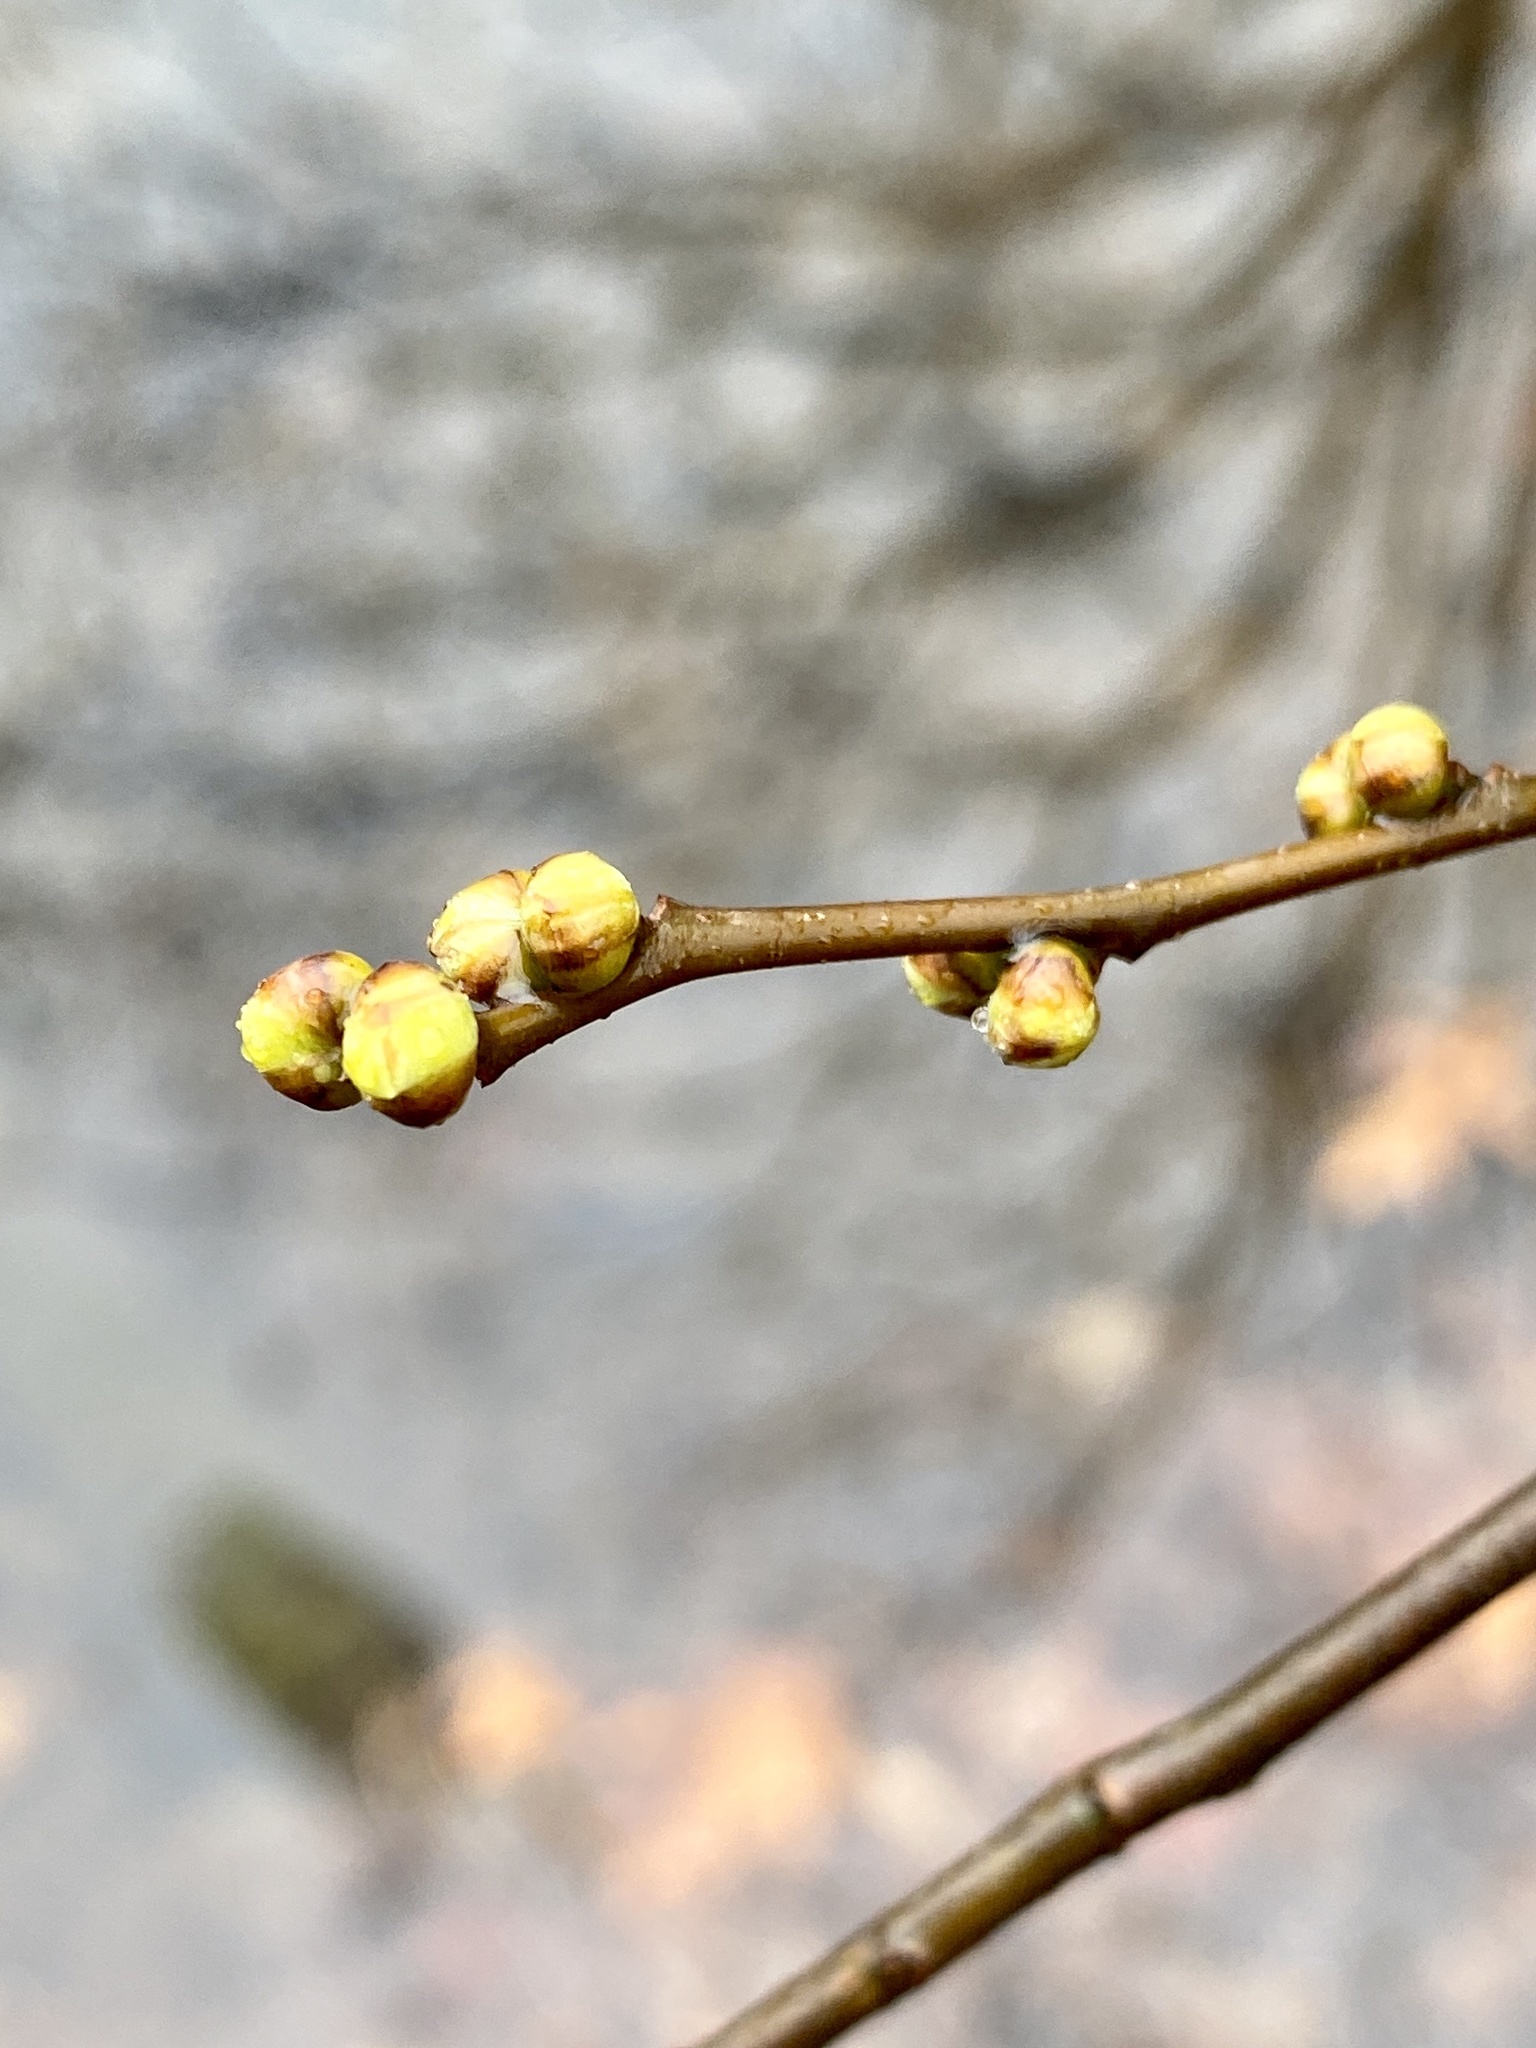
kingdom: Plantae
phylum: Tracheophyta
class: Magnoliopsida
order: Laurales
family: Lauraceae
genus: Lindera
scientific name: Lindera benzoin
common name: Spicebush
